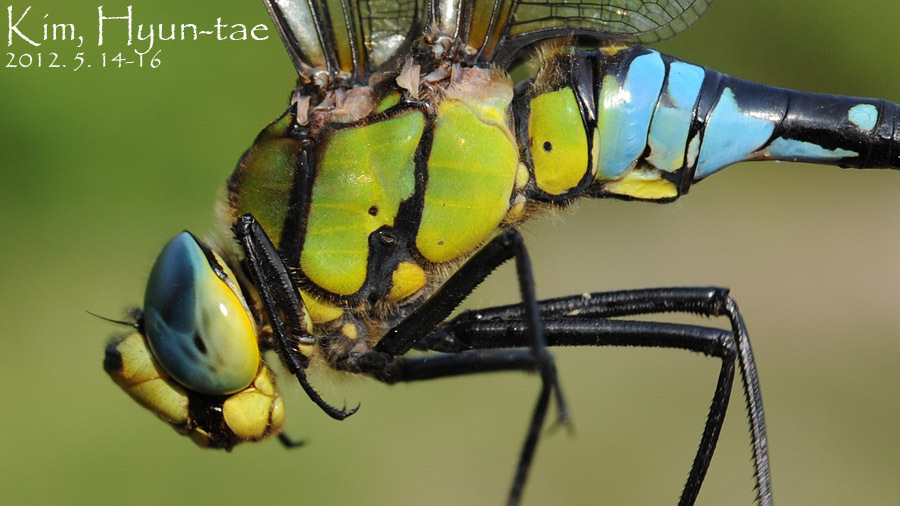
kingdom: Animalia
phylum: Arthropoda
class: Insecta
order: Odonata
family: Aeshnidae
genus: Anax
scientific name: Anax nigrofasciatus
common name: Blue-spotted emperor
